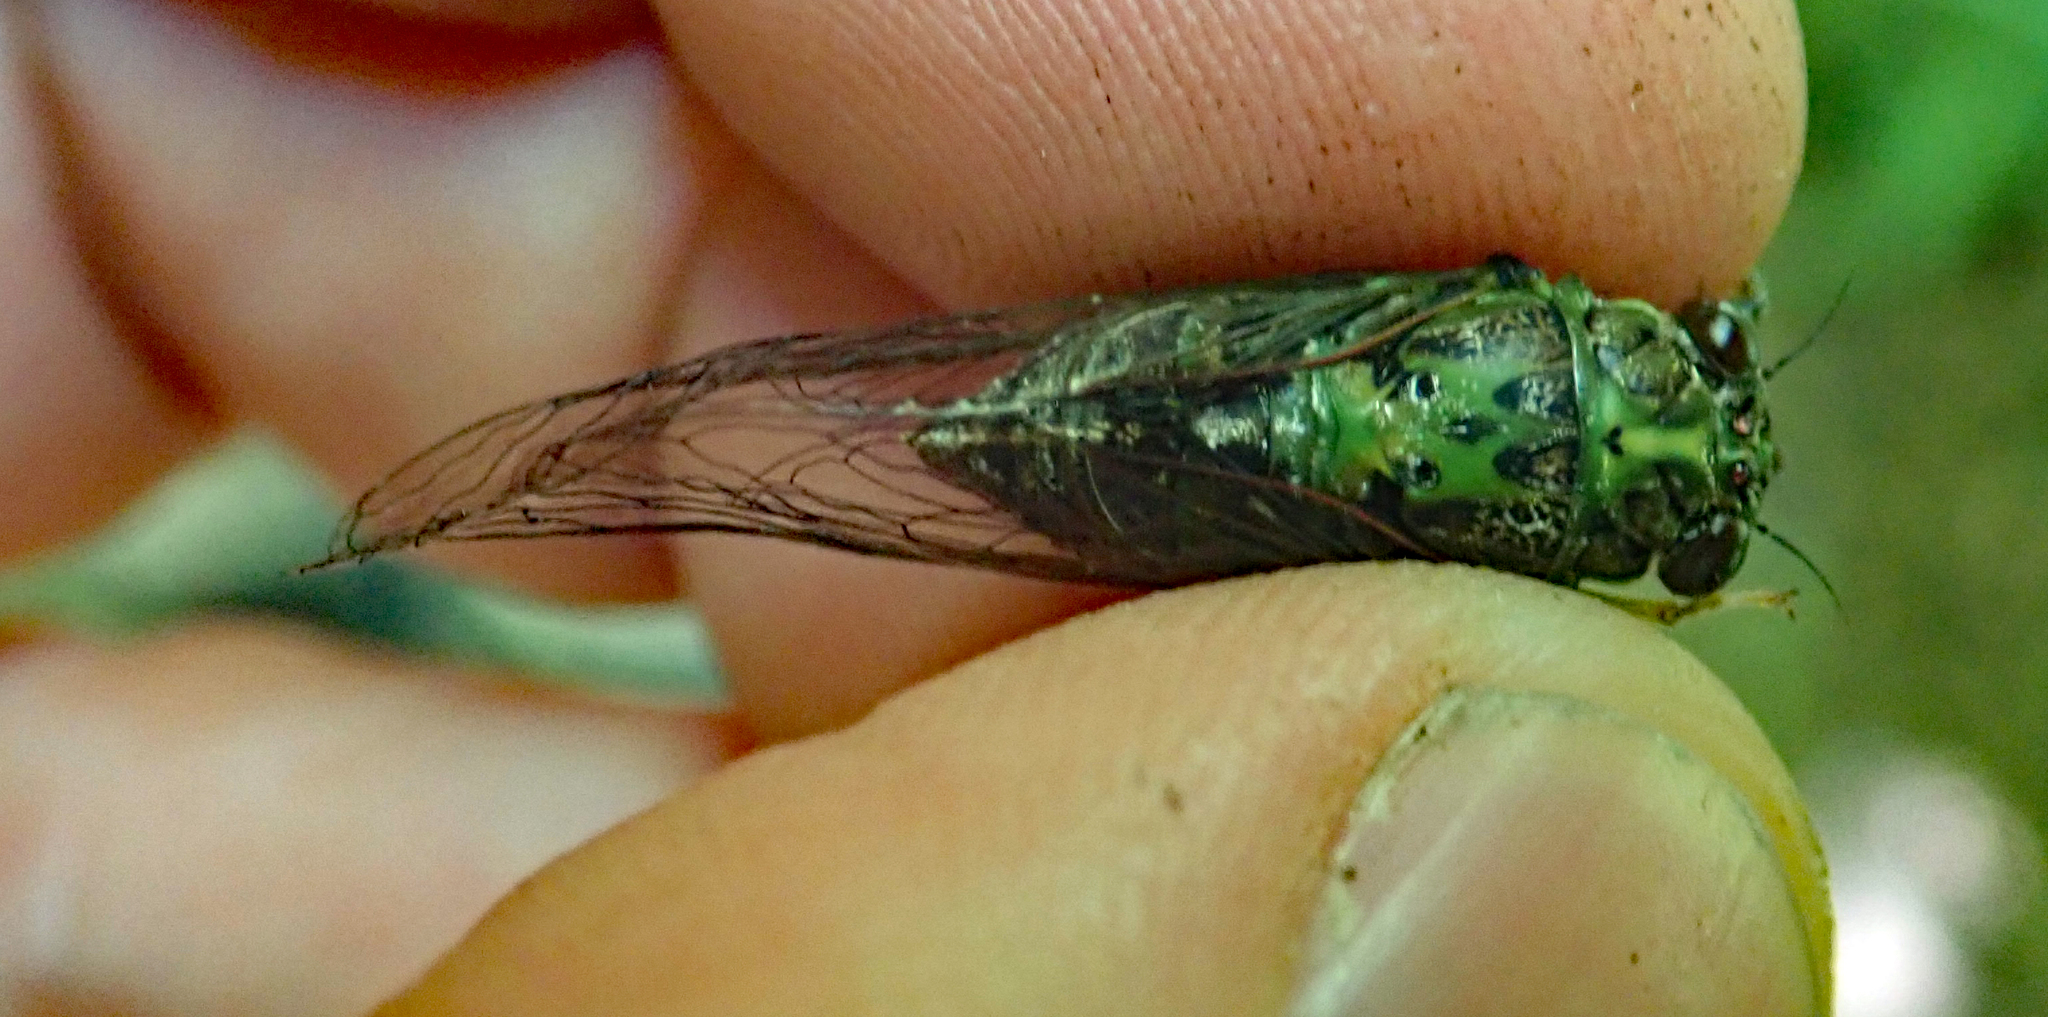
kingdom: Animalia
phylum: Arthropoda
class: Insecta
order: Hemiptera
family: Cicadidae
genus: Kikihia
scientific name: Kikihia scutellaris
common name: Lesser bronze cicada
